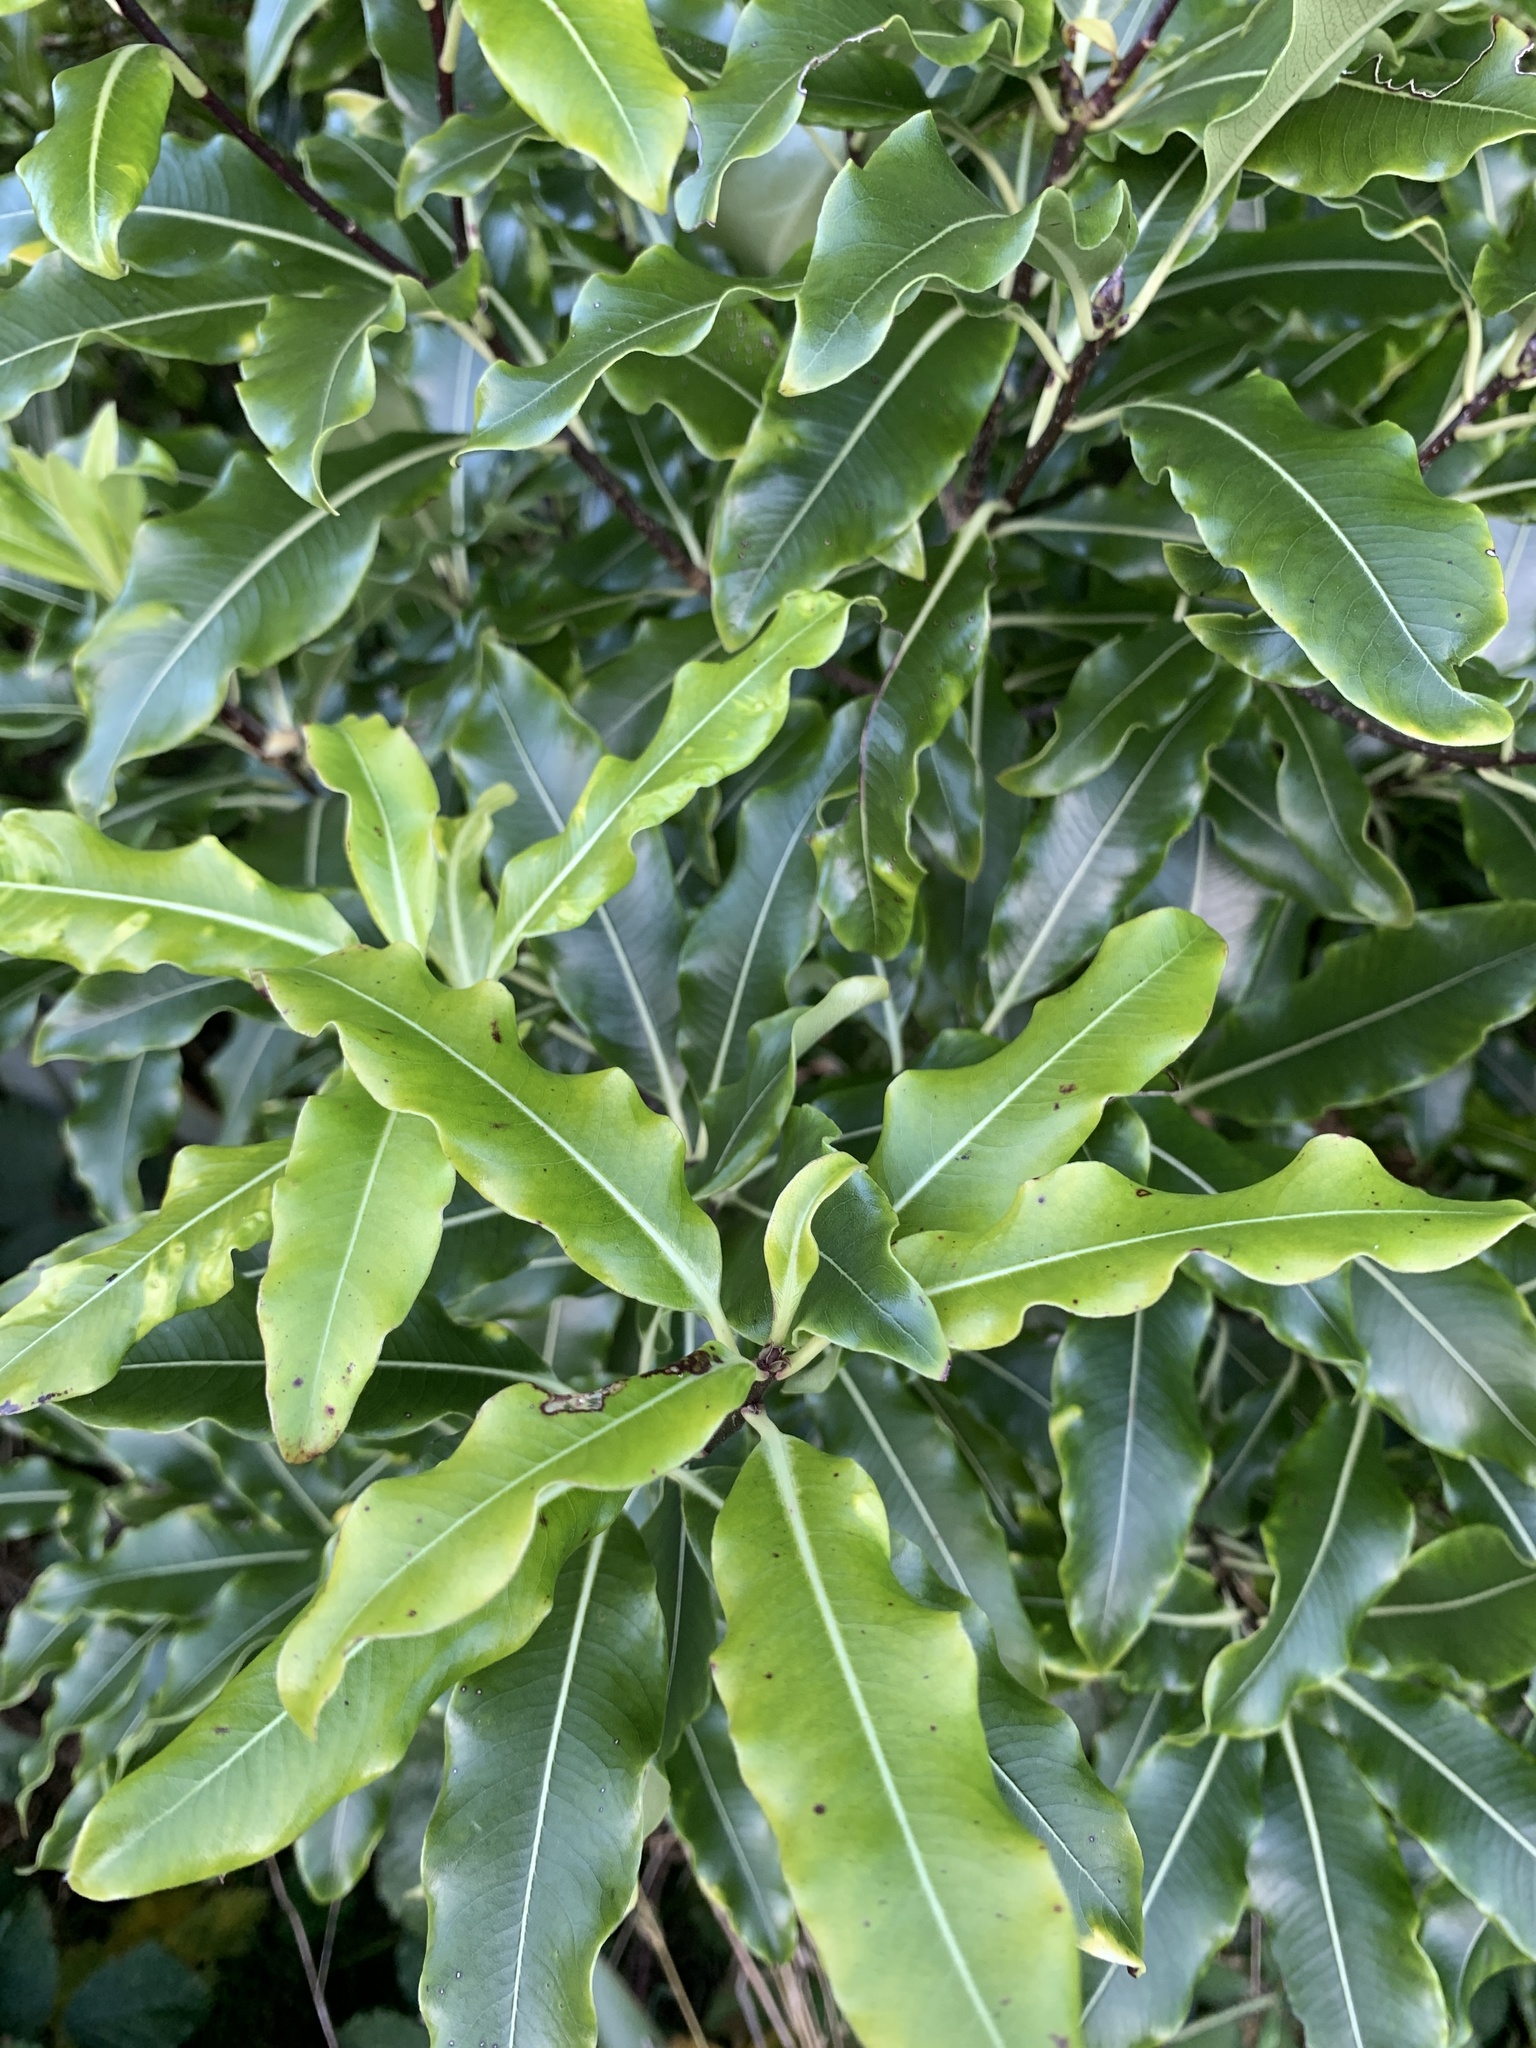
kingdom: Plantae
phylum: Tracheophyta
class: Magnoliopsida
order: Apiales
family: Pittosporaceae
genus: Pittosporum
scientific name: Pittosporum eugenioides
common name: Lemonwood
